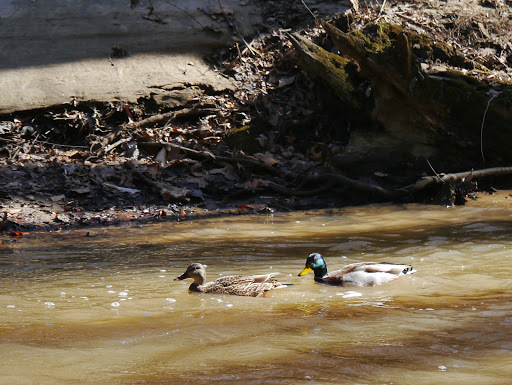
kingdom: Animalia
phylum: Chordata
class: Aves
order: Anseriformes
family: Anatidae
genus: Anas
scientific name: Anas platyrhynchos
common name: Mallard
